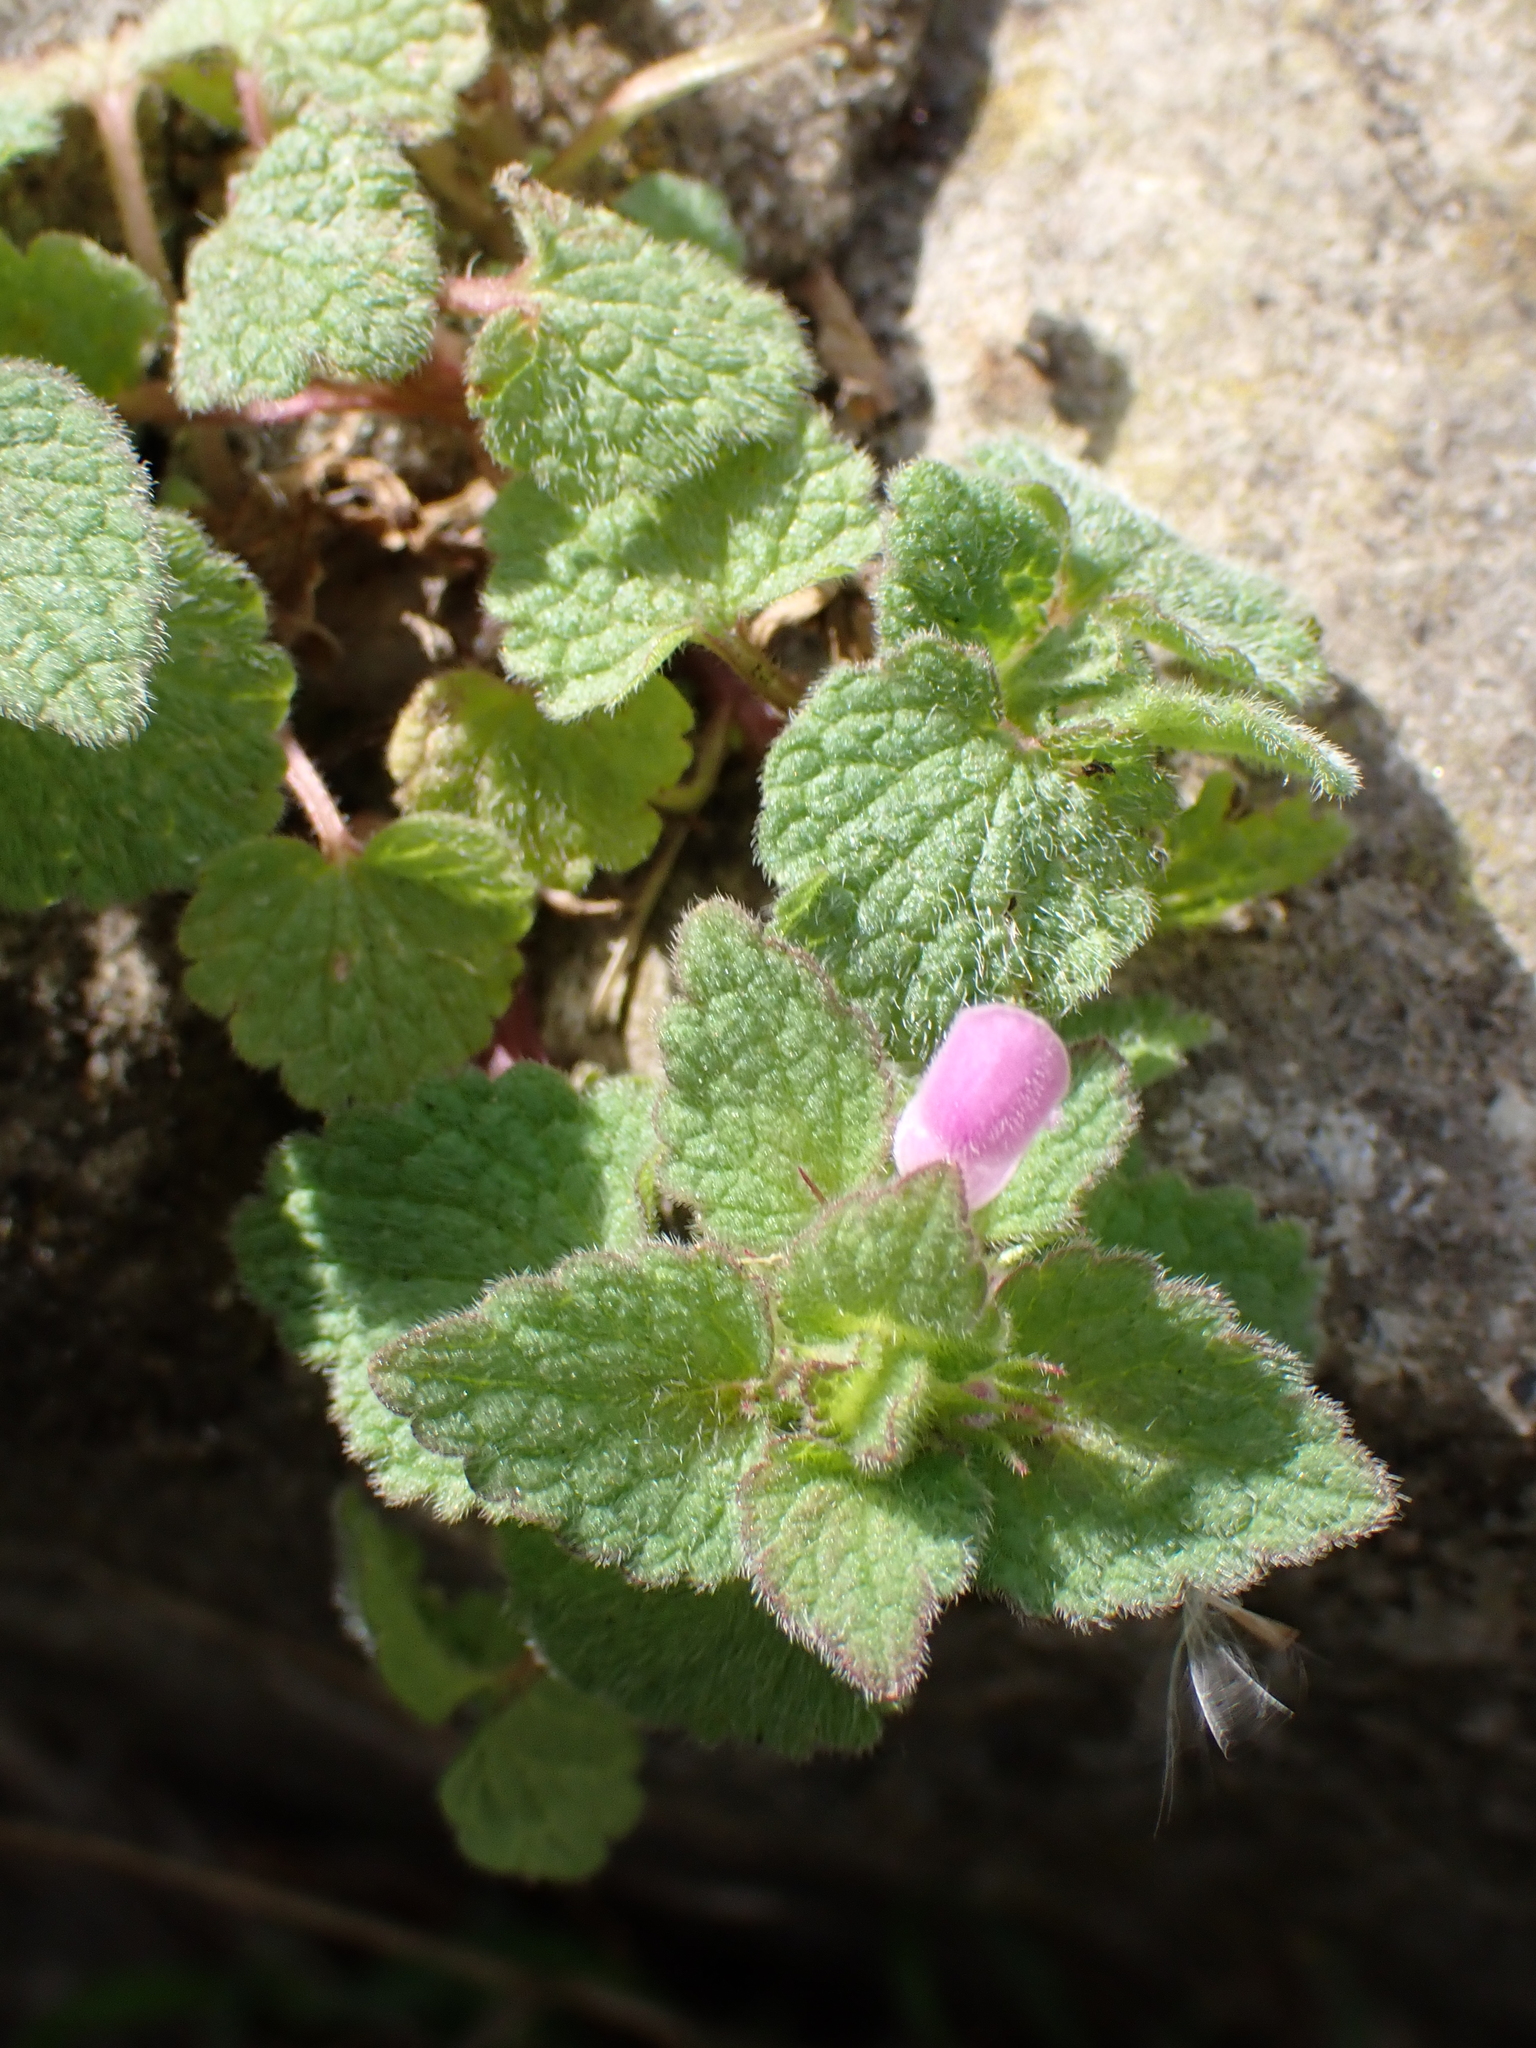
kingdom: Plantae
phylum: Tracheophyta
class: Magnoliopsida
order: Lamiales
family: Lamiaceae
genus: Lamium
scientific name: Lamium purpureum
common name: Red dead-nettle
